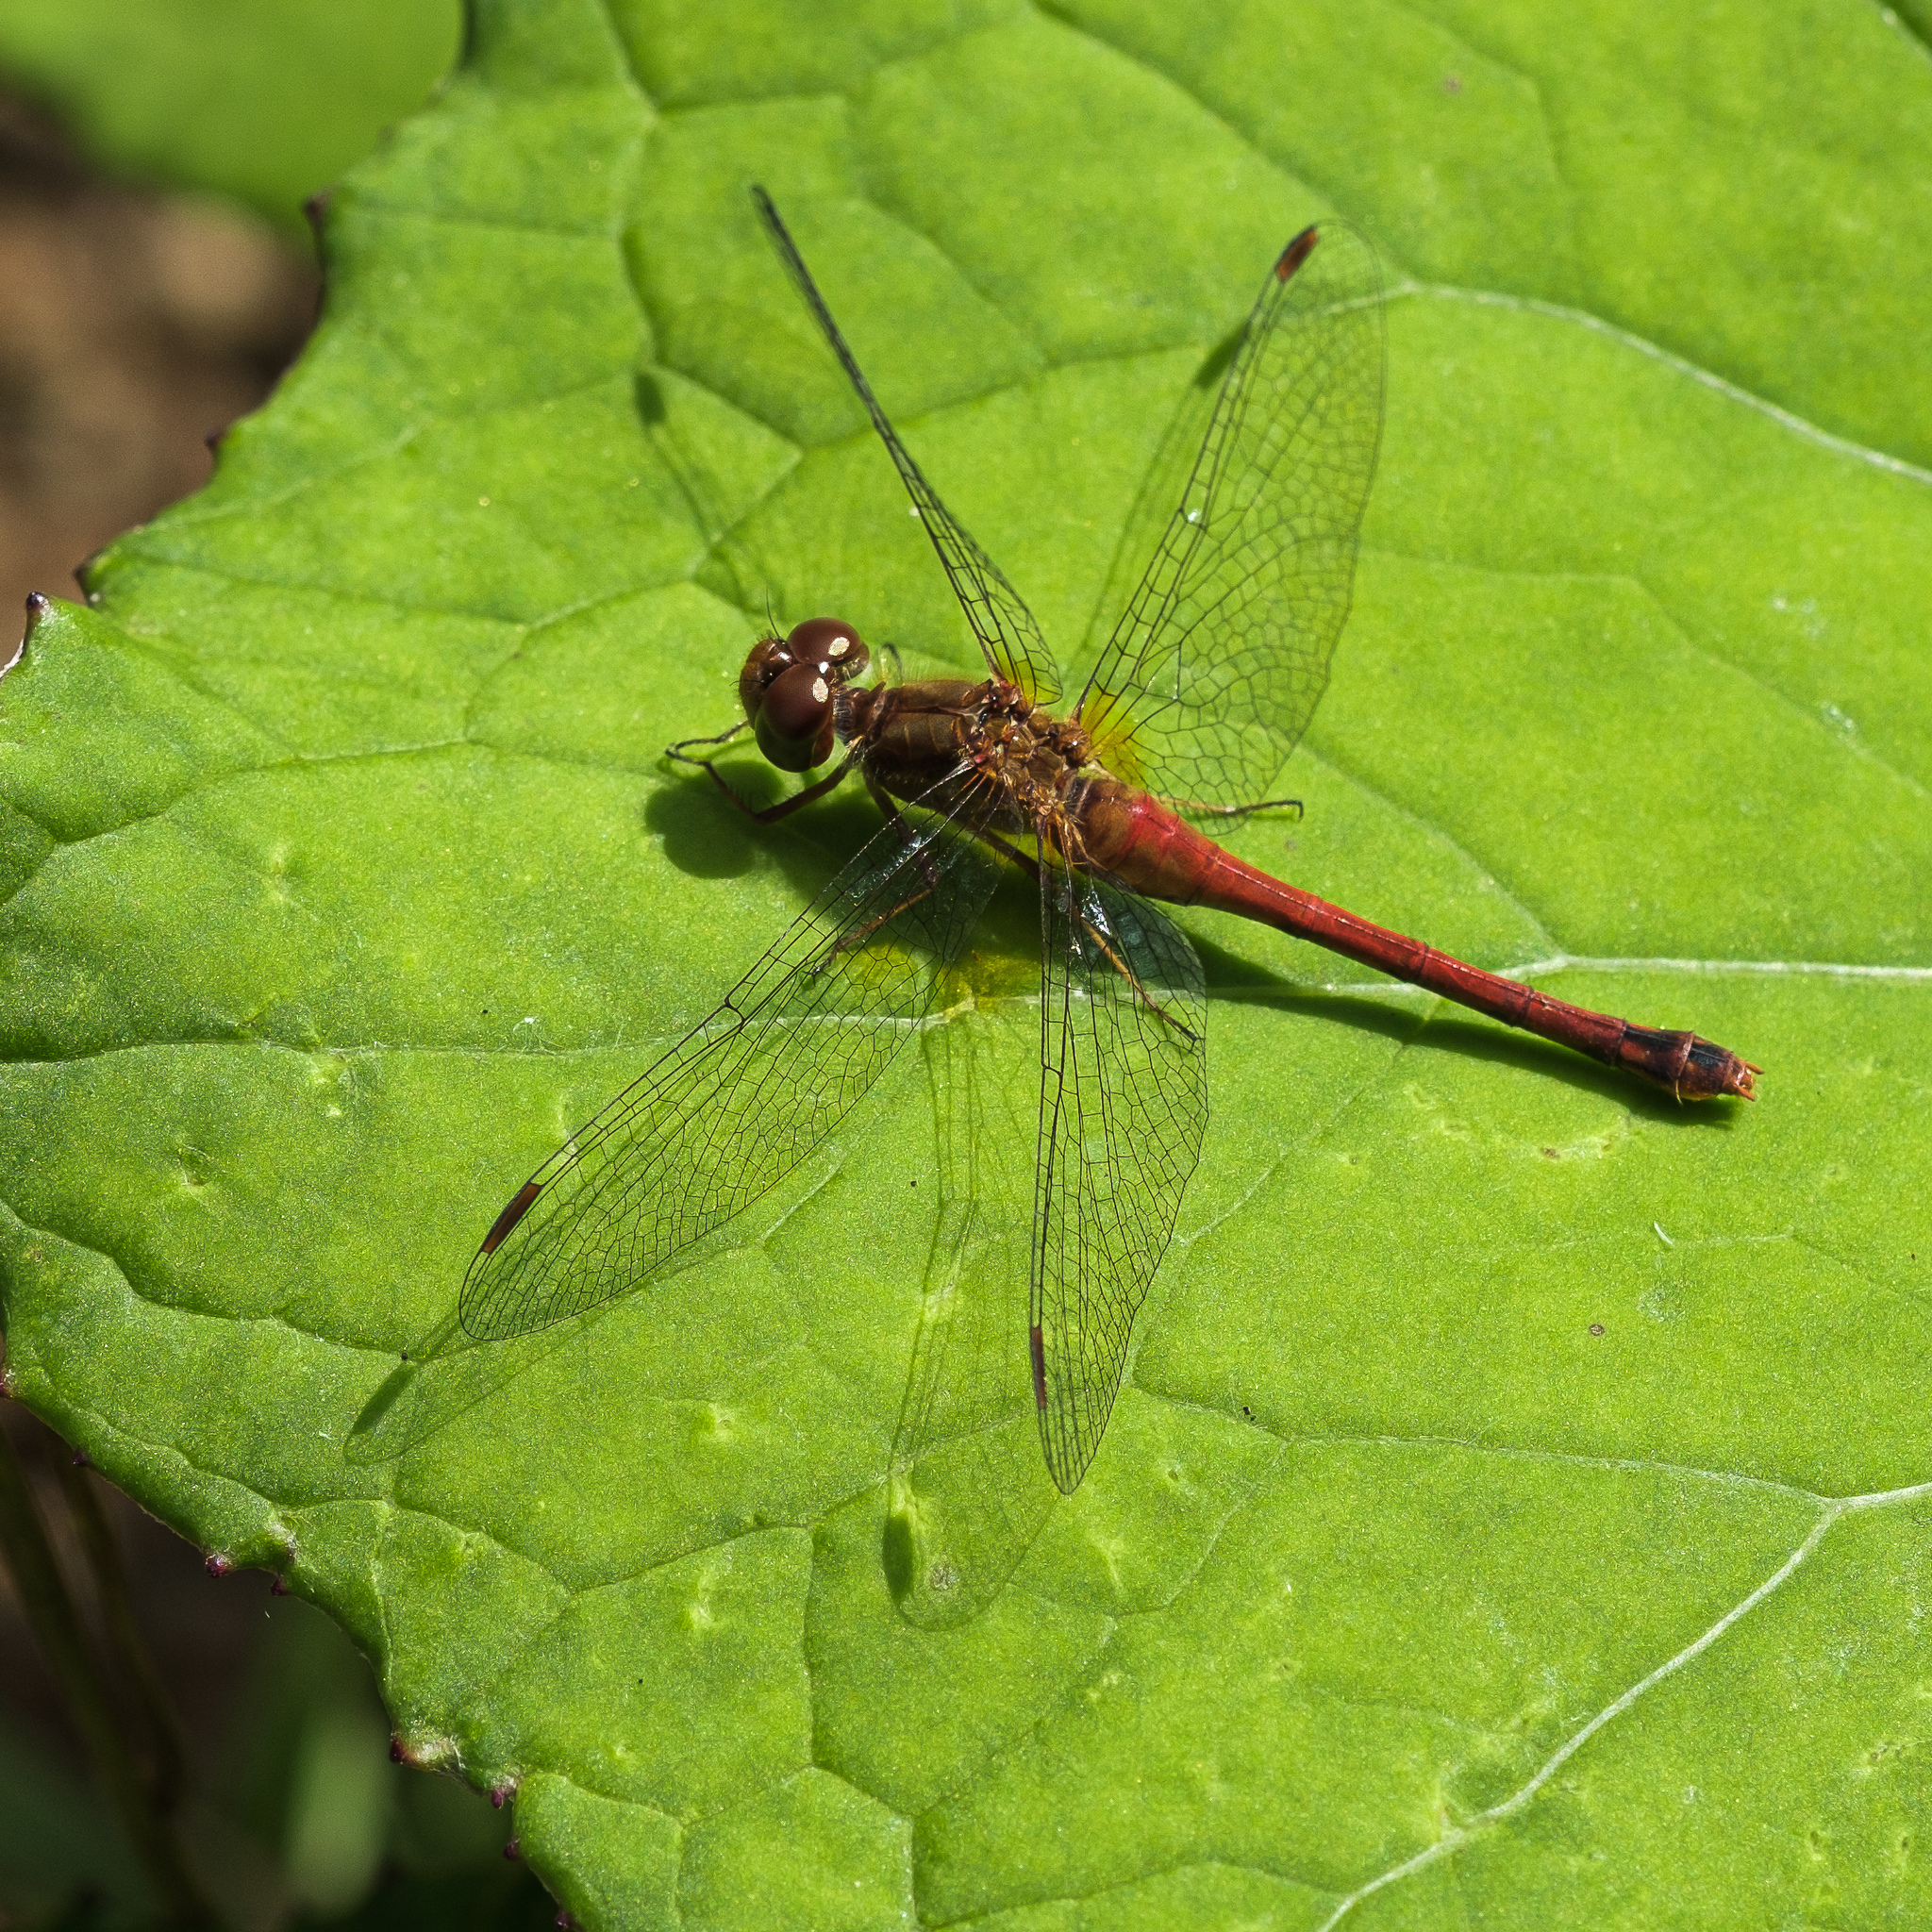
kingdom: Animalia
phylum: Arthropoda
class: Insecta
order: Odonata
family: Libellulidae
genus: Sympetrum
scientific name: Sympetrum vicinum
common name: Autumn meadowhawk
